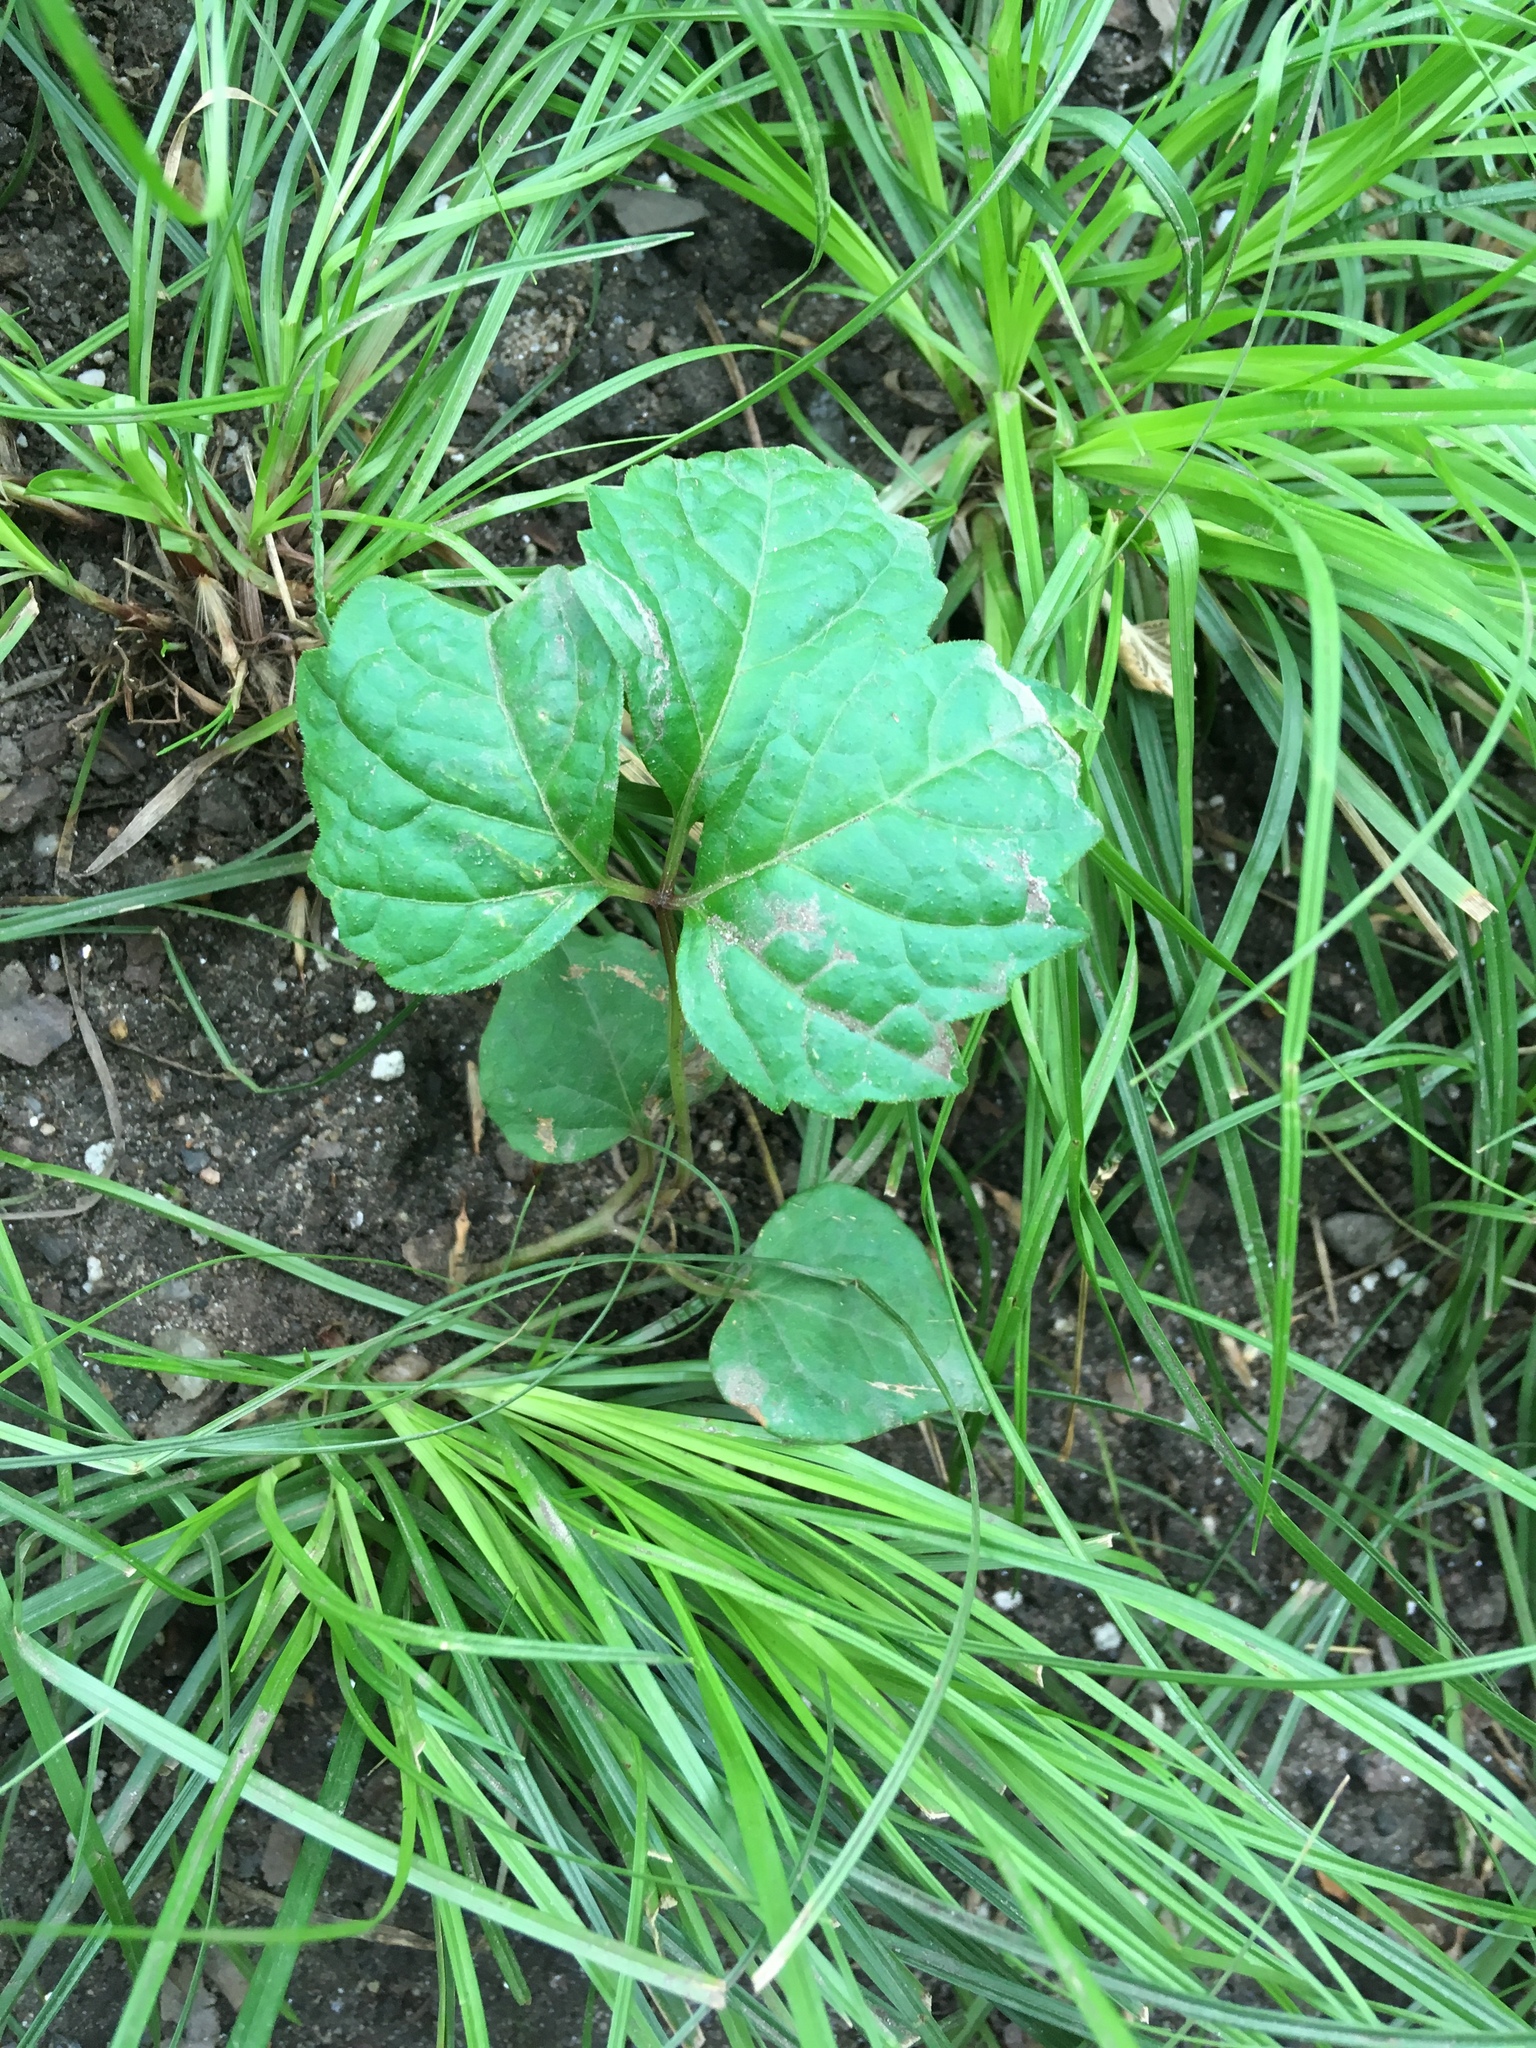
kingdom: Plantae
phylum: Tracheophyta
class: Magnoliopsida
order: Vitales
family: Vitaceae
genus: Parthenocissus
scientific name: Parthenocissus tricuspidata
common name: Boston ivy
